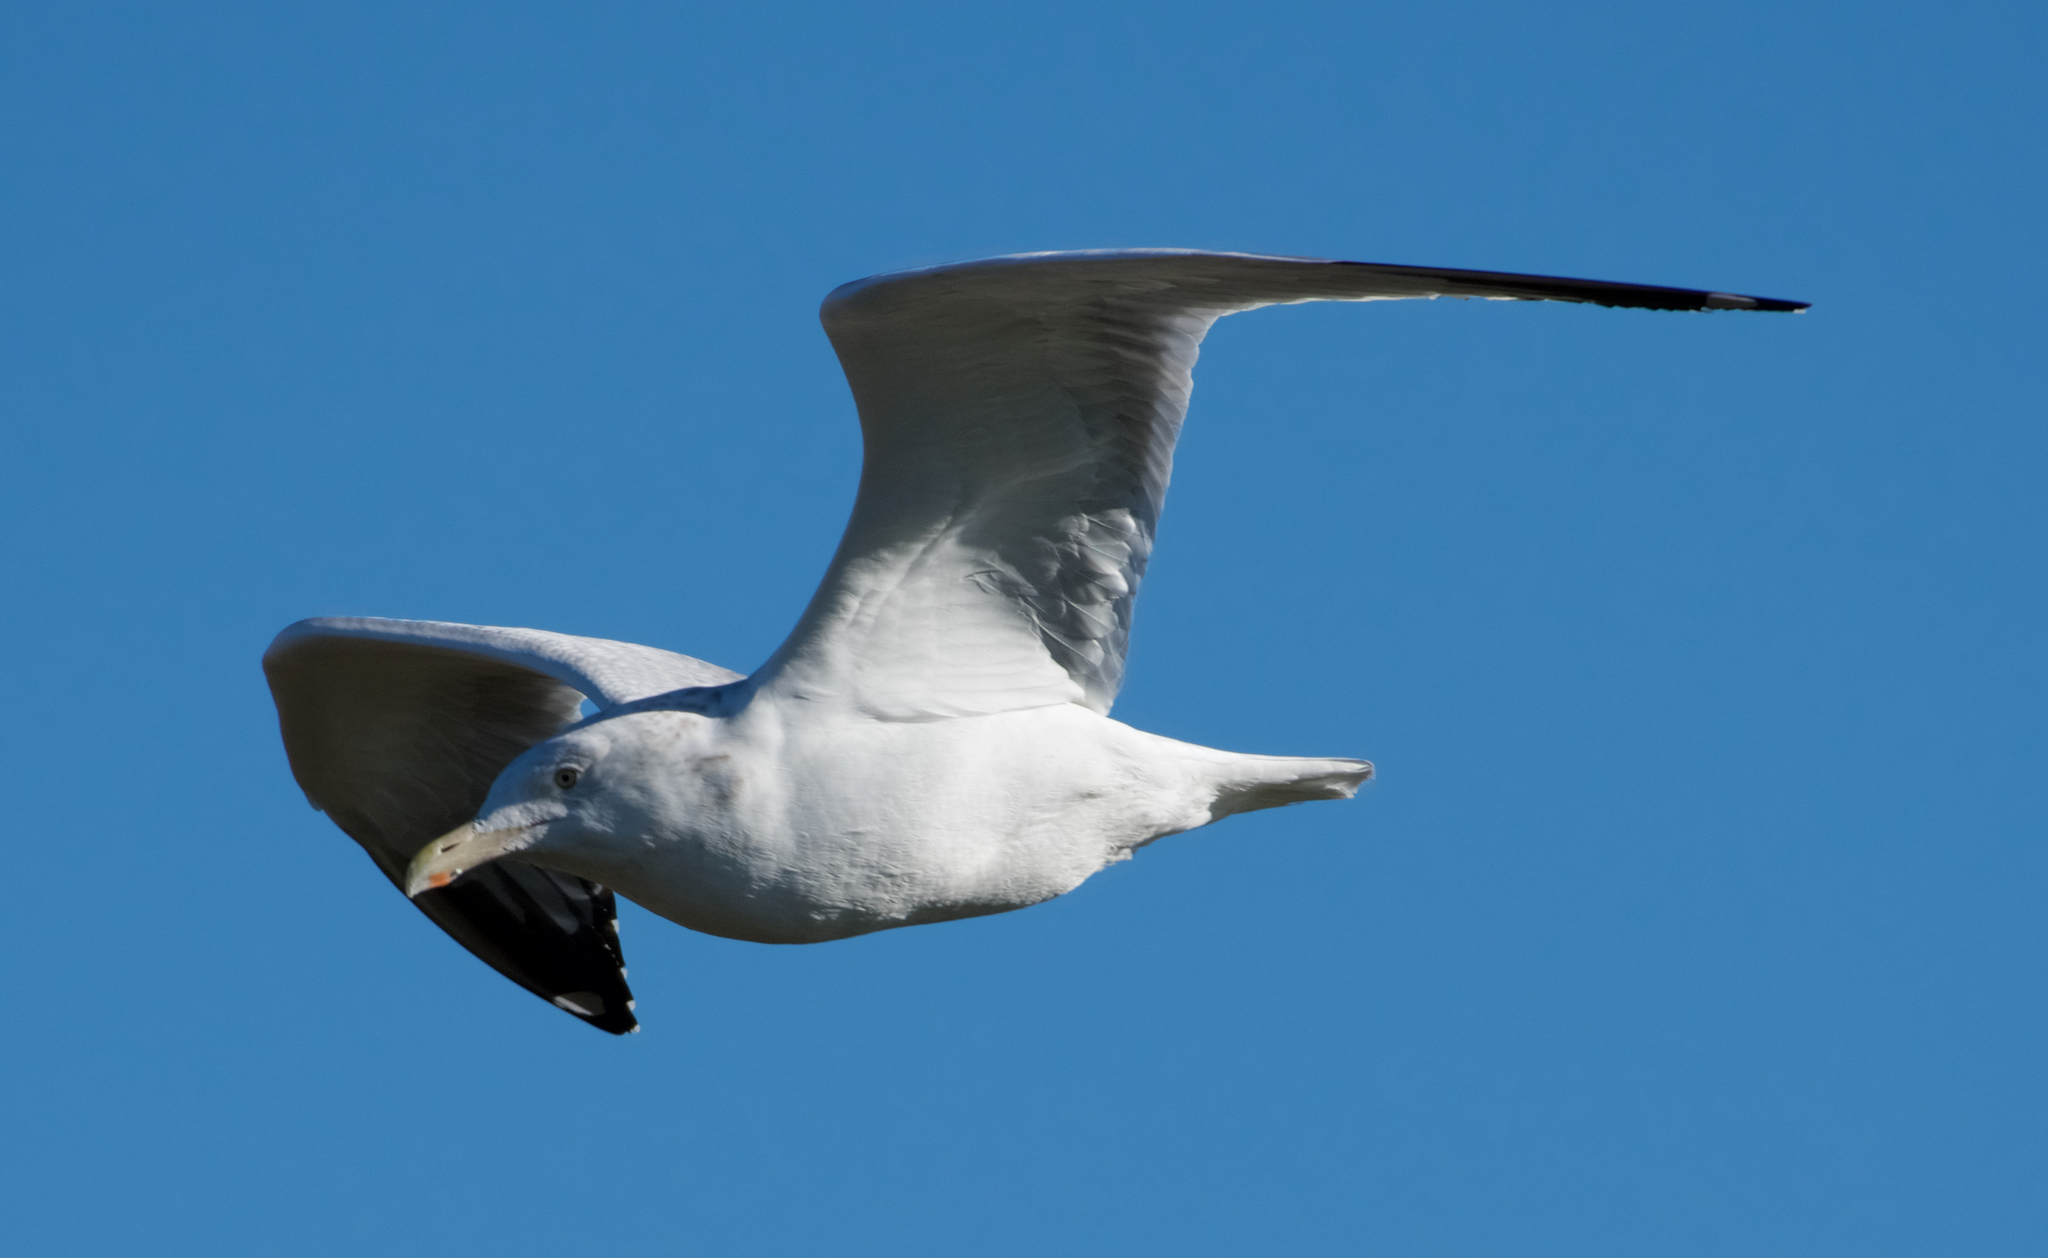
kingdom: Animalia
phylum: Chordata
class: Aves
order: Charadriiformes
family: Laridae
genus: Larus
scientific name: Larus argentatus
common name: Herring gull
